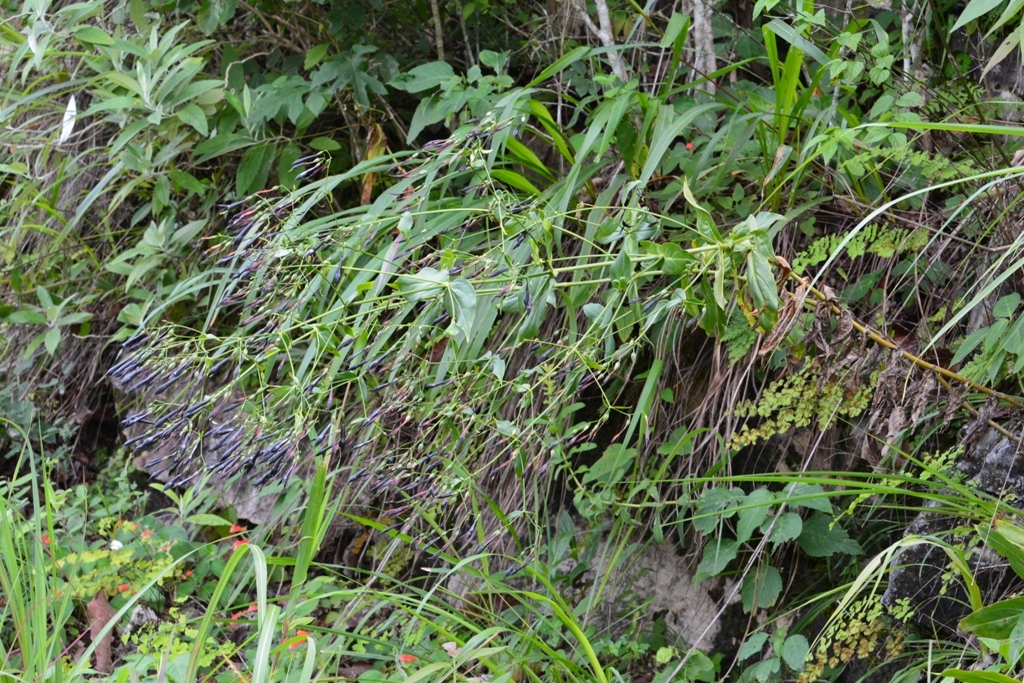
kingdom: Plantae
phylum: Tracheophyta
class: Magnoliopsida
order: Gentianales
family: Gentianaceae
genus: Lisianthus
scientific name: Lisianthus nigrescens
